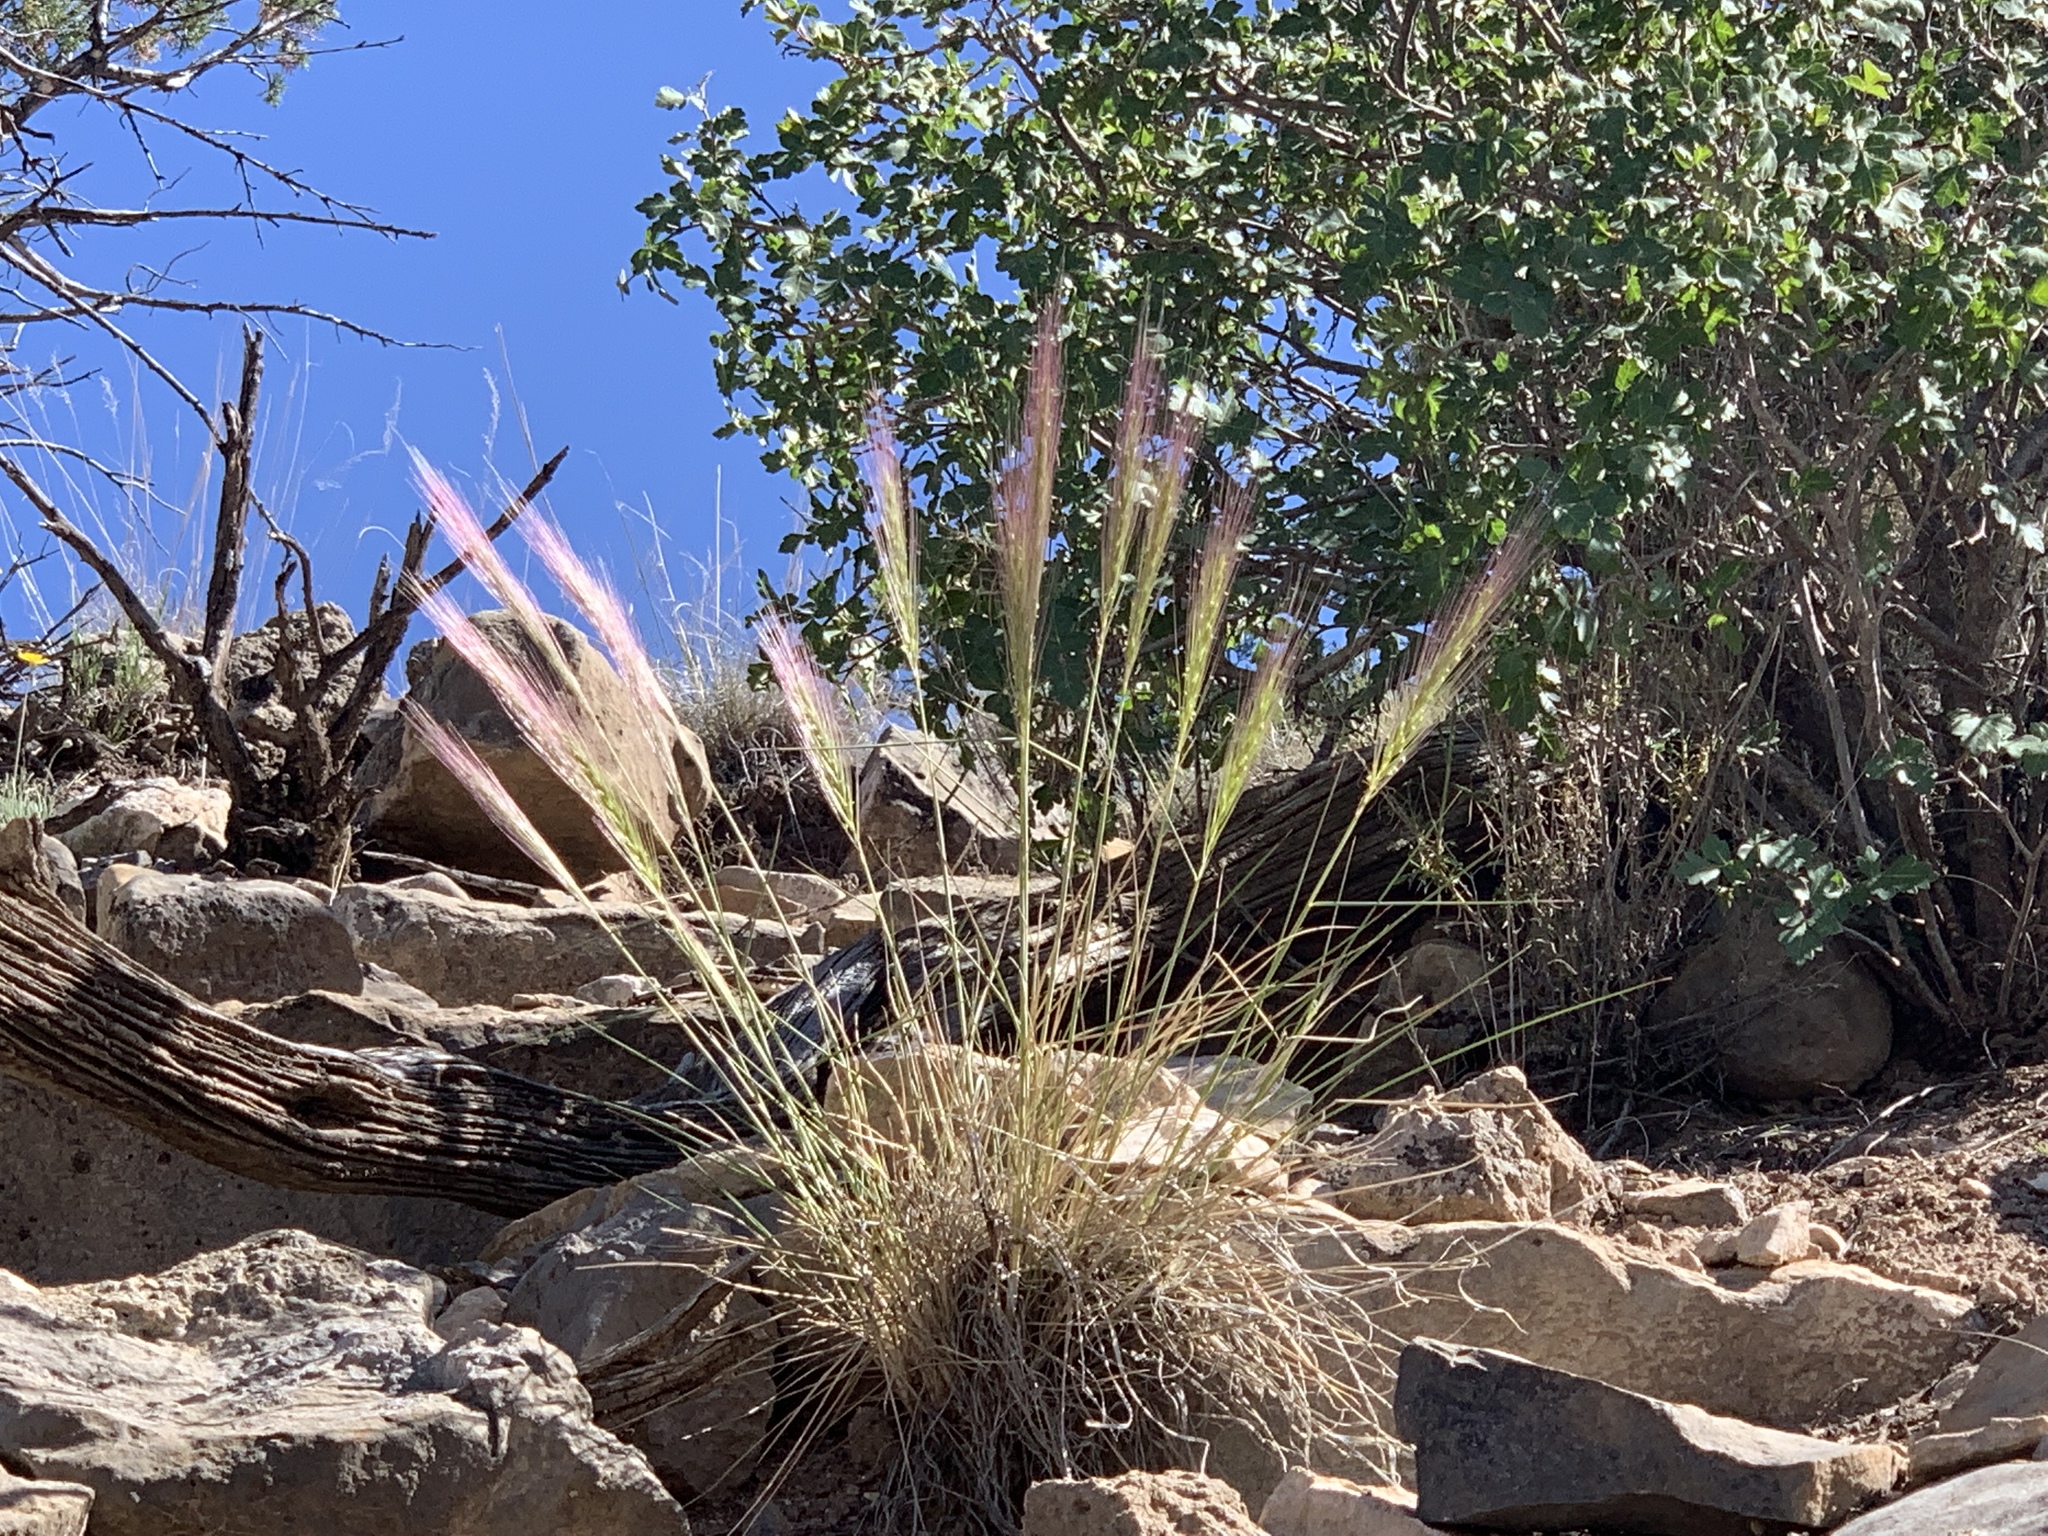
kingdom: Plantae
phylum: Tracheophyta
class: Liliopsida
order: Poales
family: Poaceae
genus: Elymus
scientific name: Elymus longifolius
